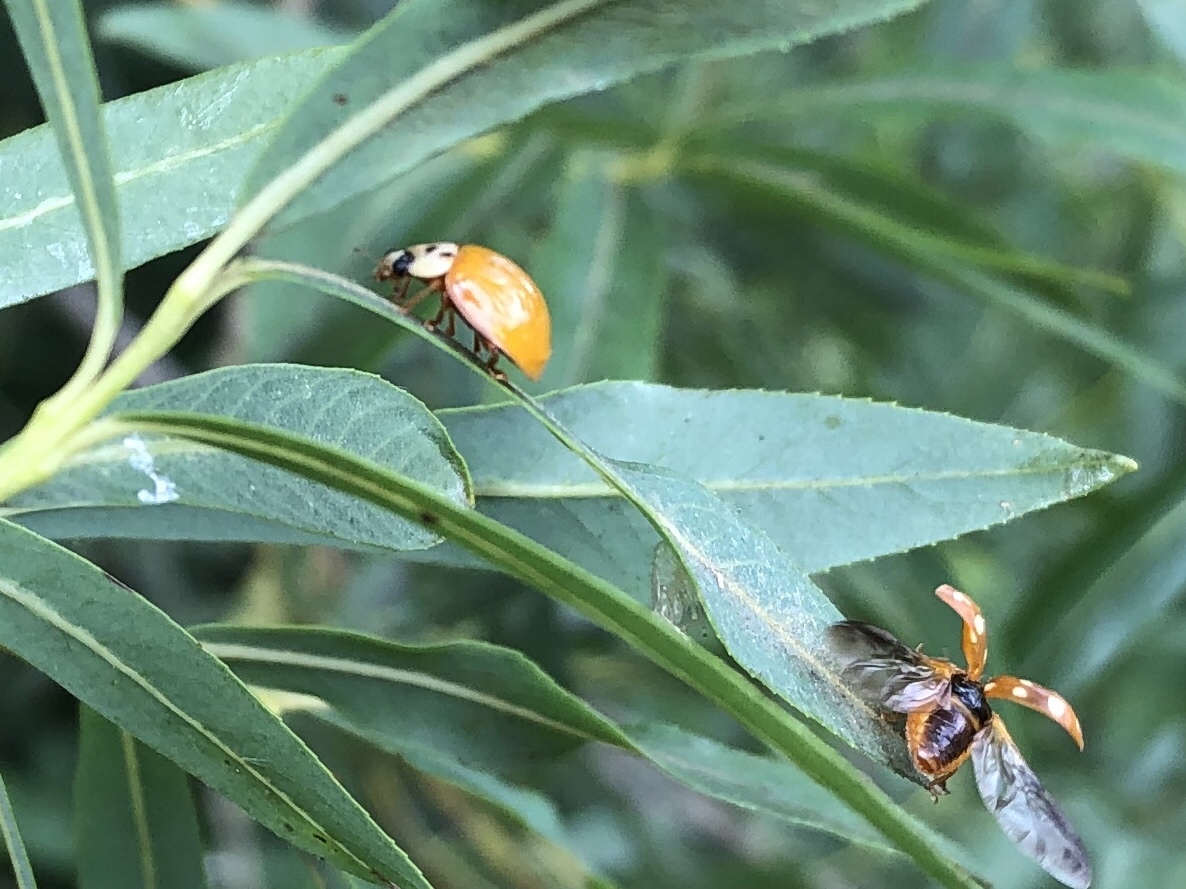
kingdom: Animalia
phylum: Arthropoda
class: Insecta
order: Coleoptera
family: Coccinellidae
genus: Harmonia
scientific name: Harmonia axyridis
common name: Harlequin ladybird
